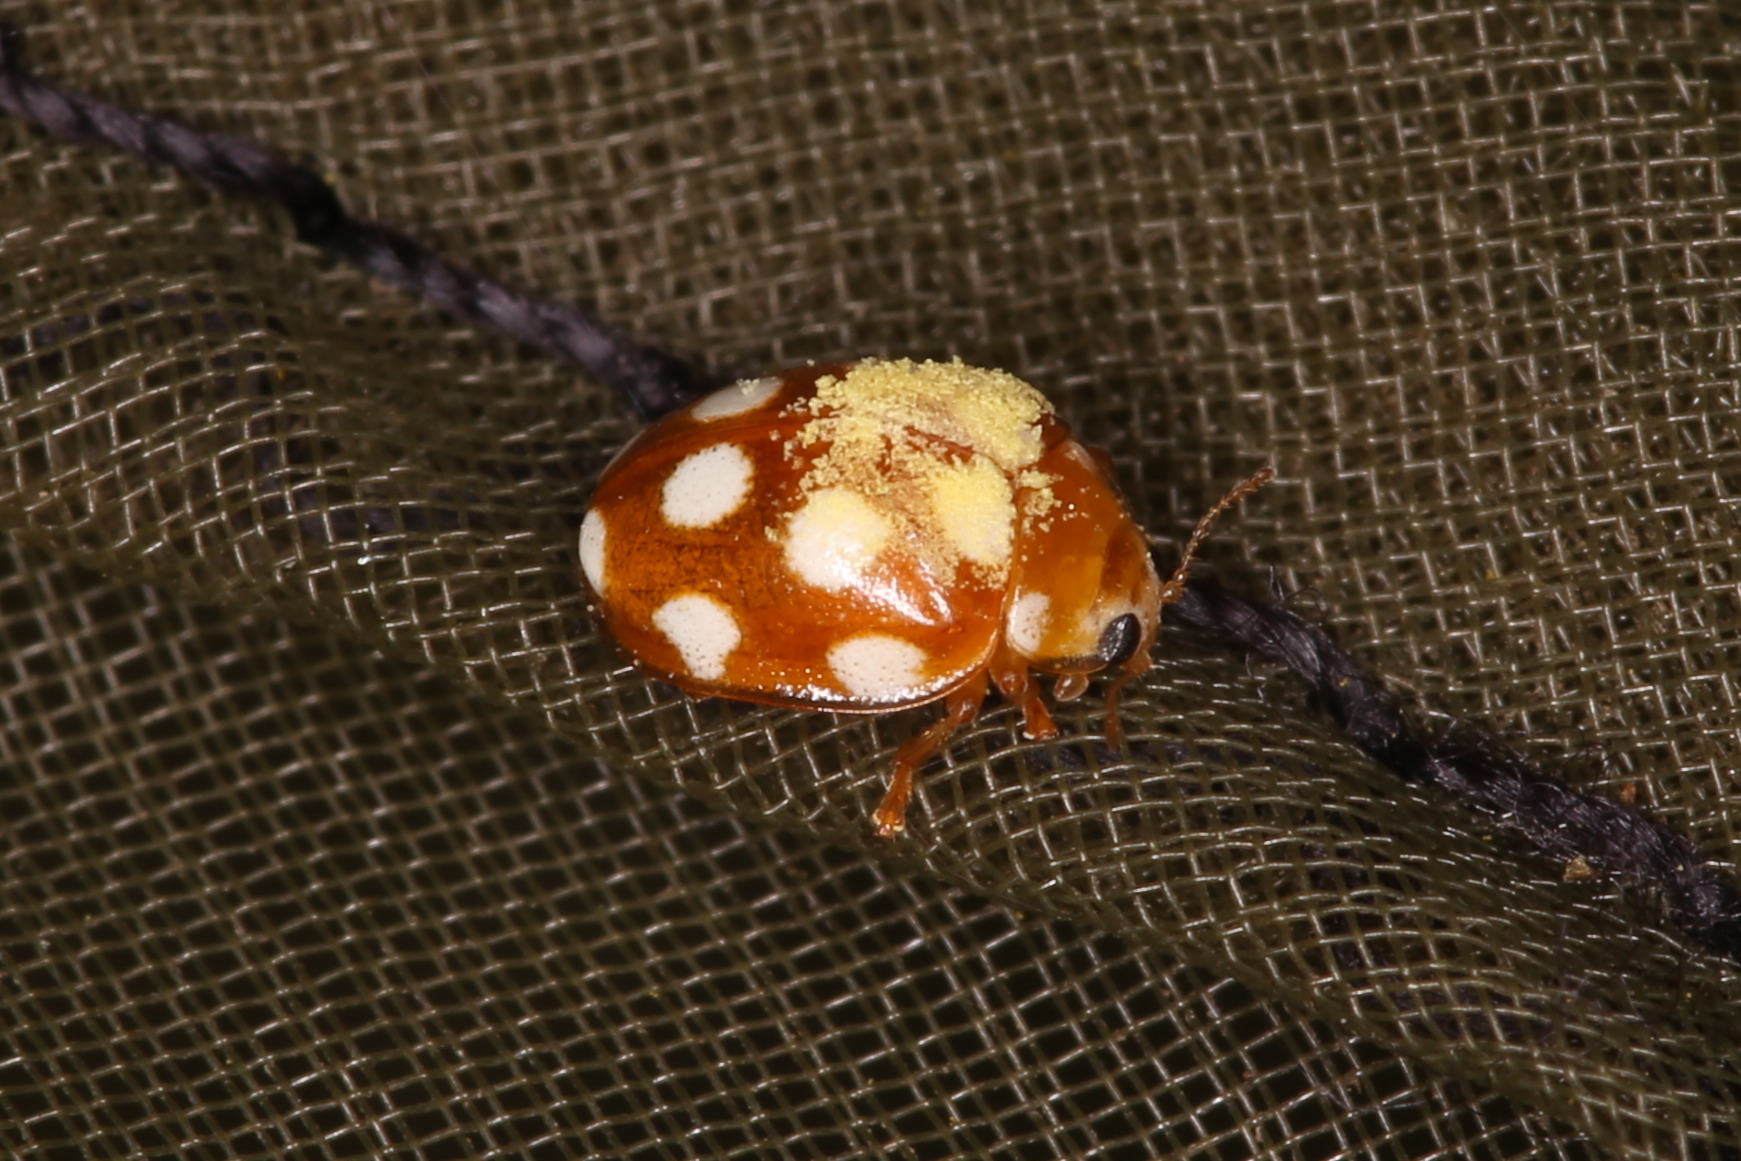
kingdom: Animalia
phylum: Arthropoda
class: Insecta
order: Coleoptera
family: Coccinellidae
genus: Vibidia
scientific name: Vibidia duodecimguttata
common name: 12-spot ladybird
